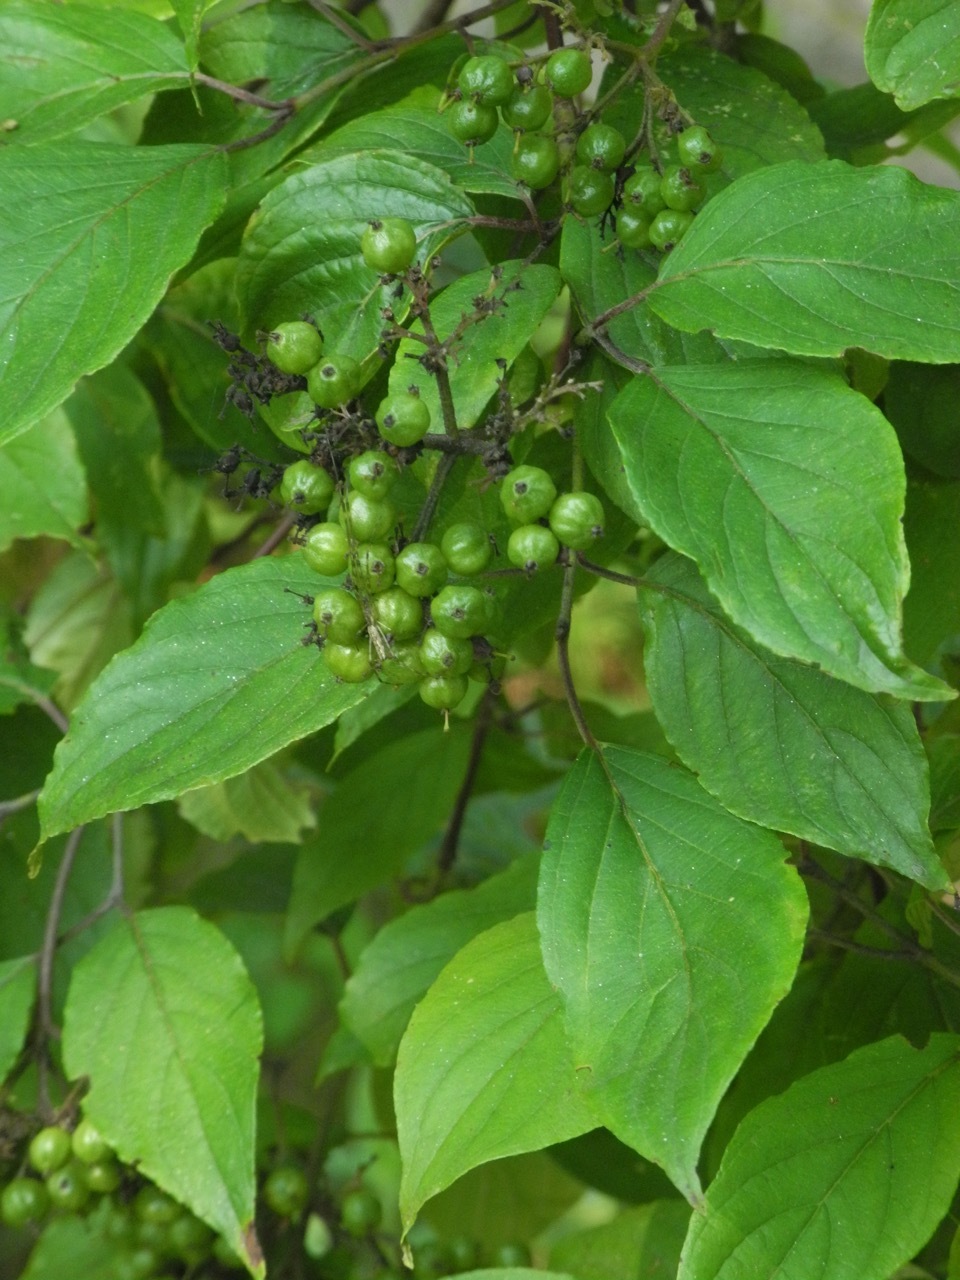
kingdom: Plantae
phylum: Tracheophyta
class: Magnoliopsida
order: Cornales
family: Cornaceae
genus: Cornus
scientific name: Cornus amomum
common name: Silky dogwood
